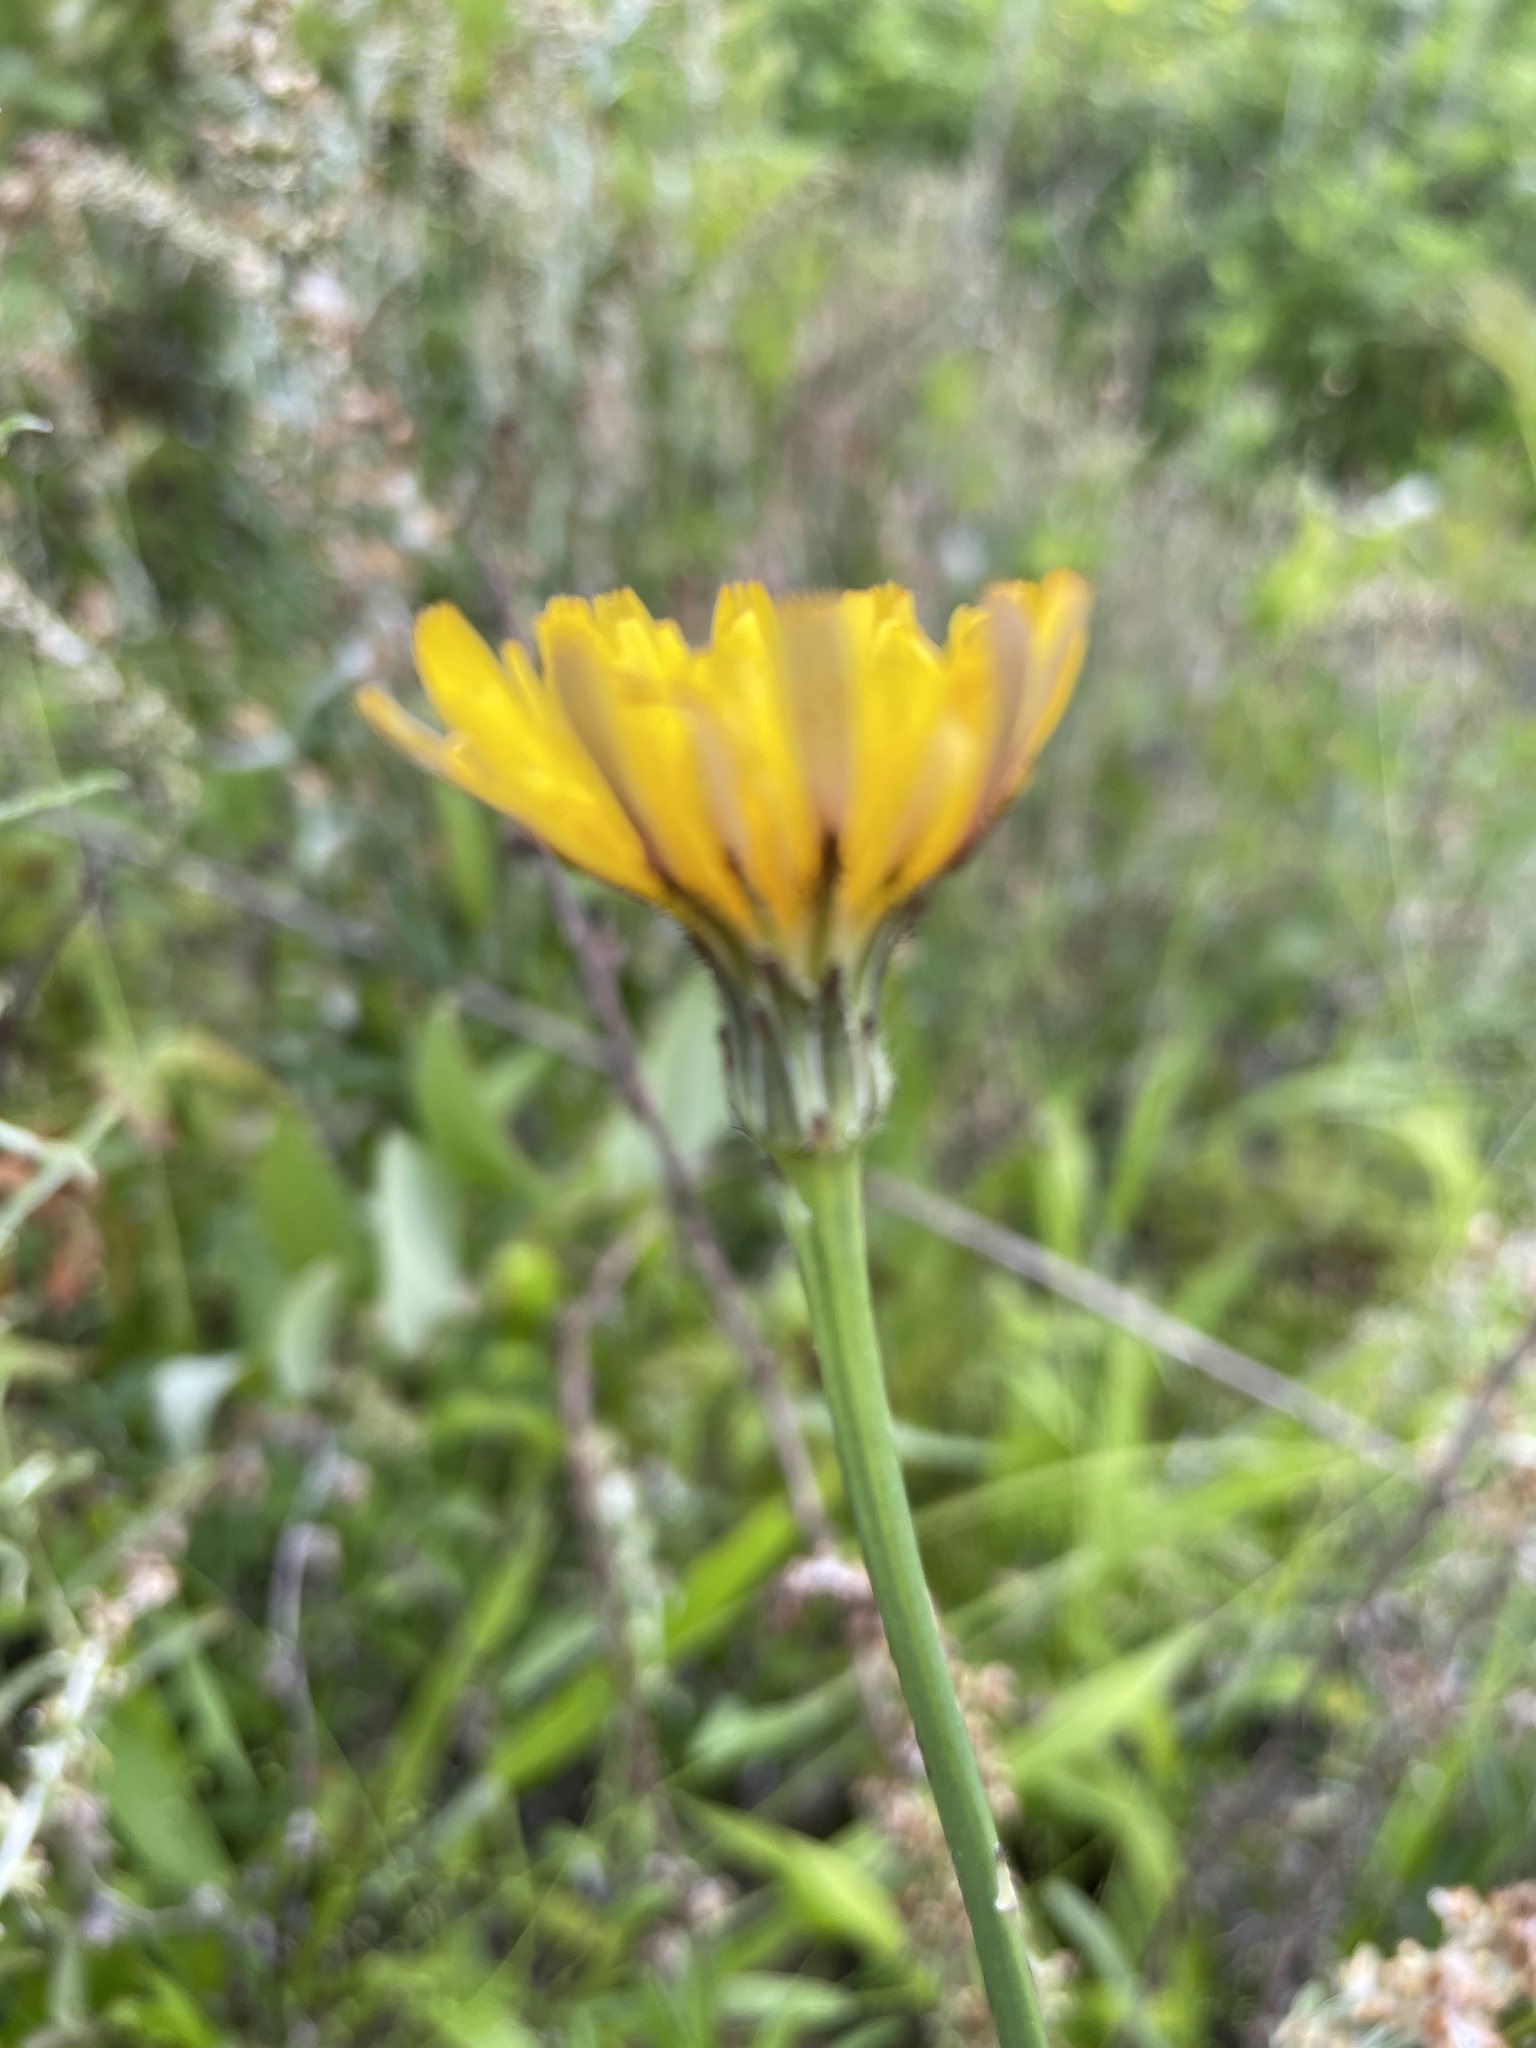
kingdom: Plantae
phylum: Tracheophyta
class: Magnoliopsida
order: Asterales
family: Asteraceae
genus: Hypochaeris
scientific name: Hypochaeris radicata
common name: Flatweed
